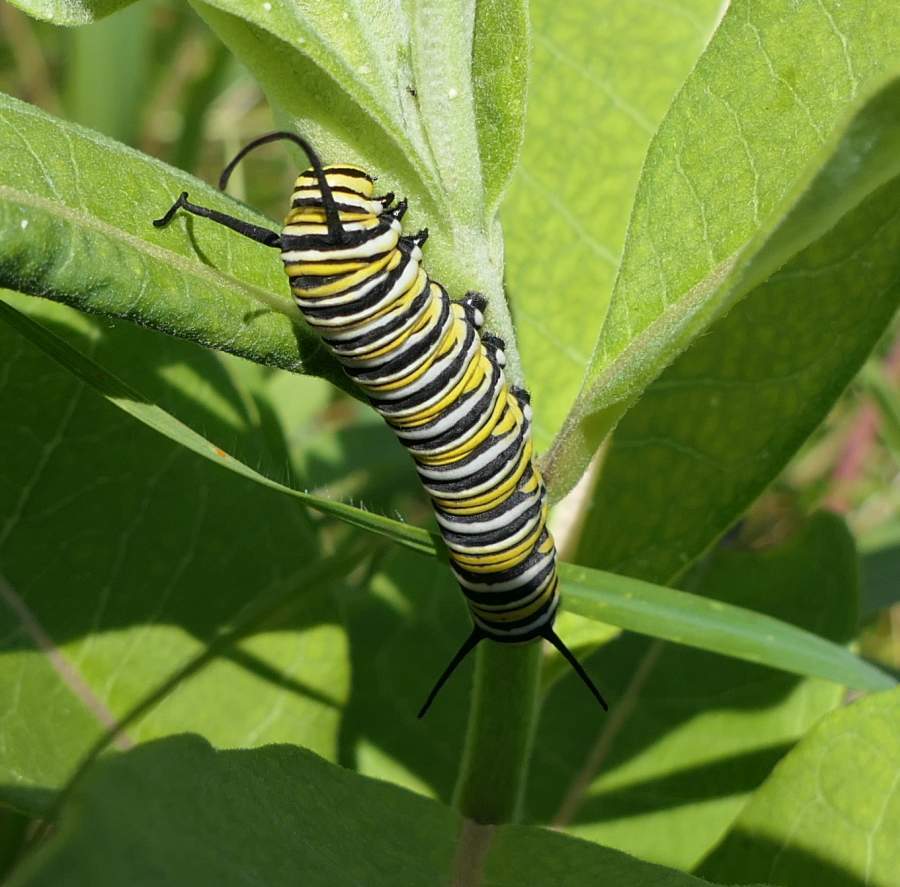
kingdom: Animalia
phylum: Arthropoda
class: Insecta
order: Lepidoptera
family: Nymphalidae
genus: Danaus
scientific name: Danaus plexippus
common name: Monarch
